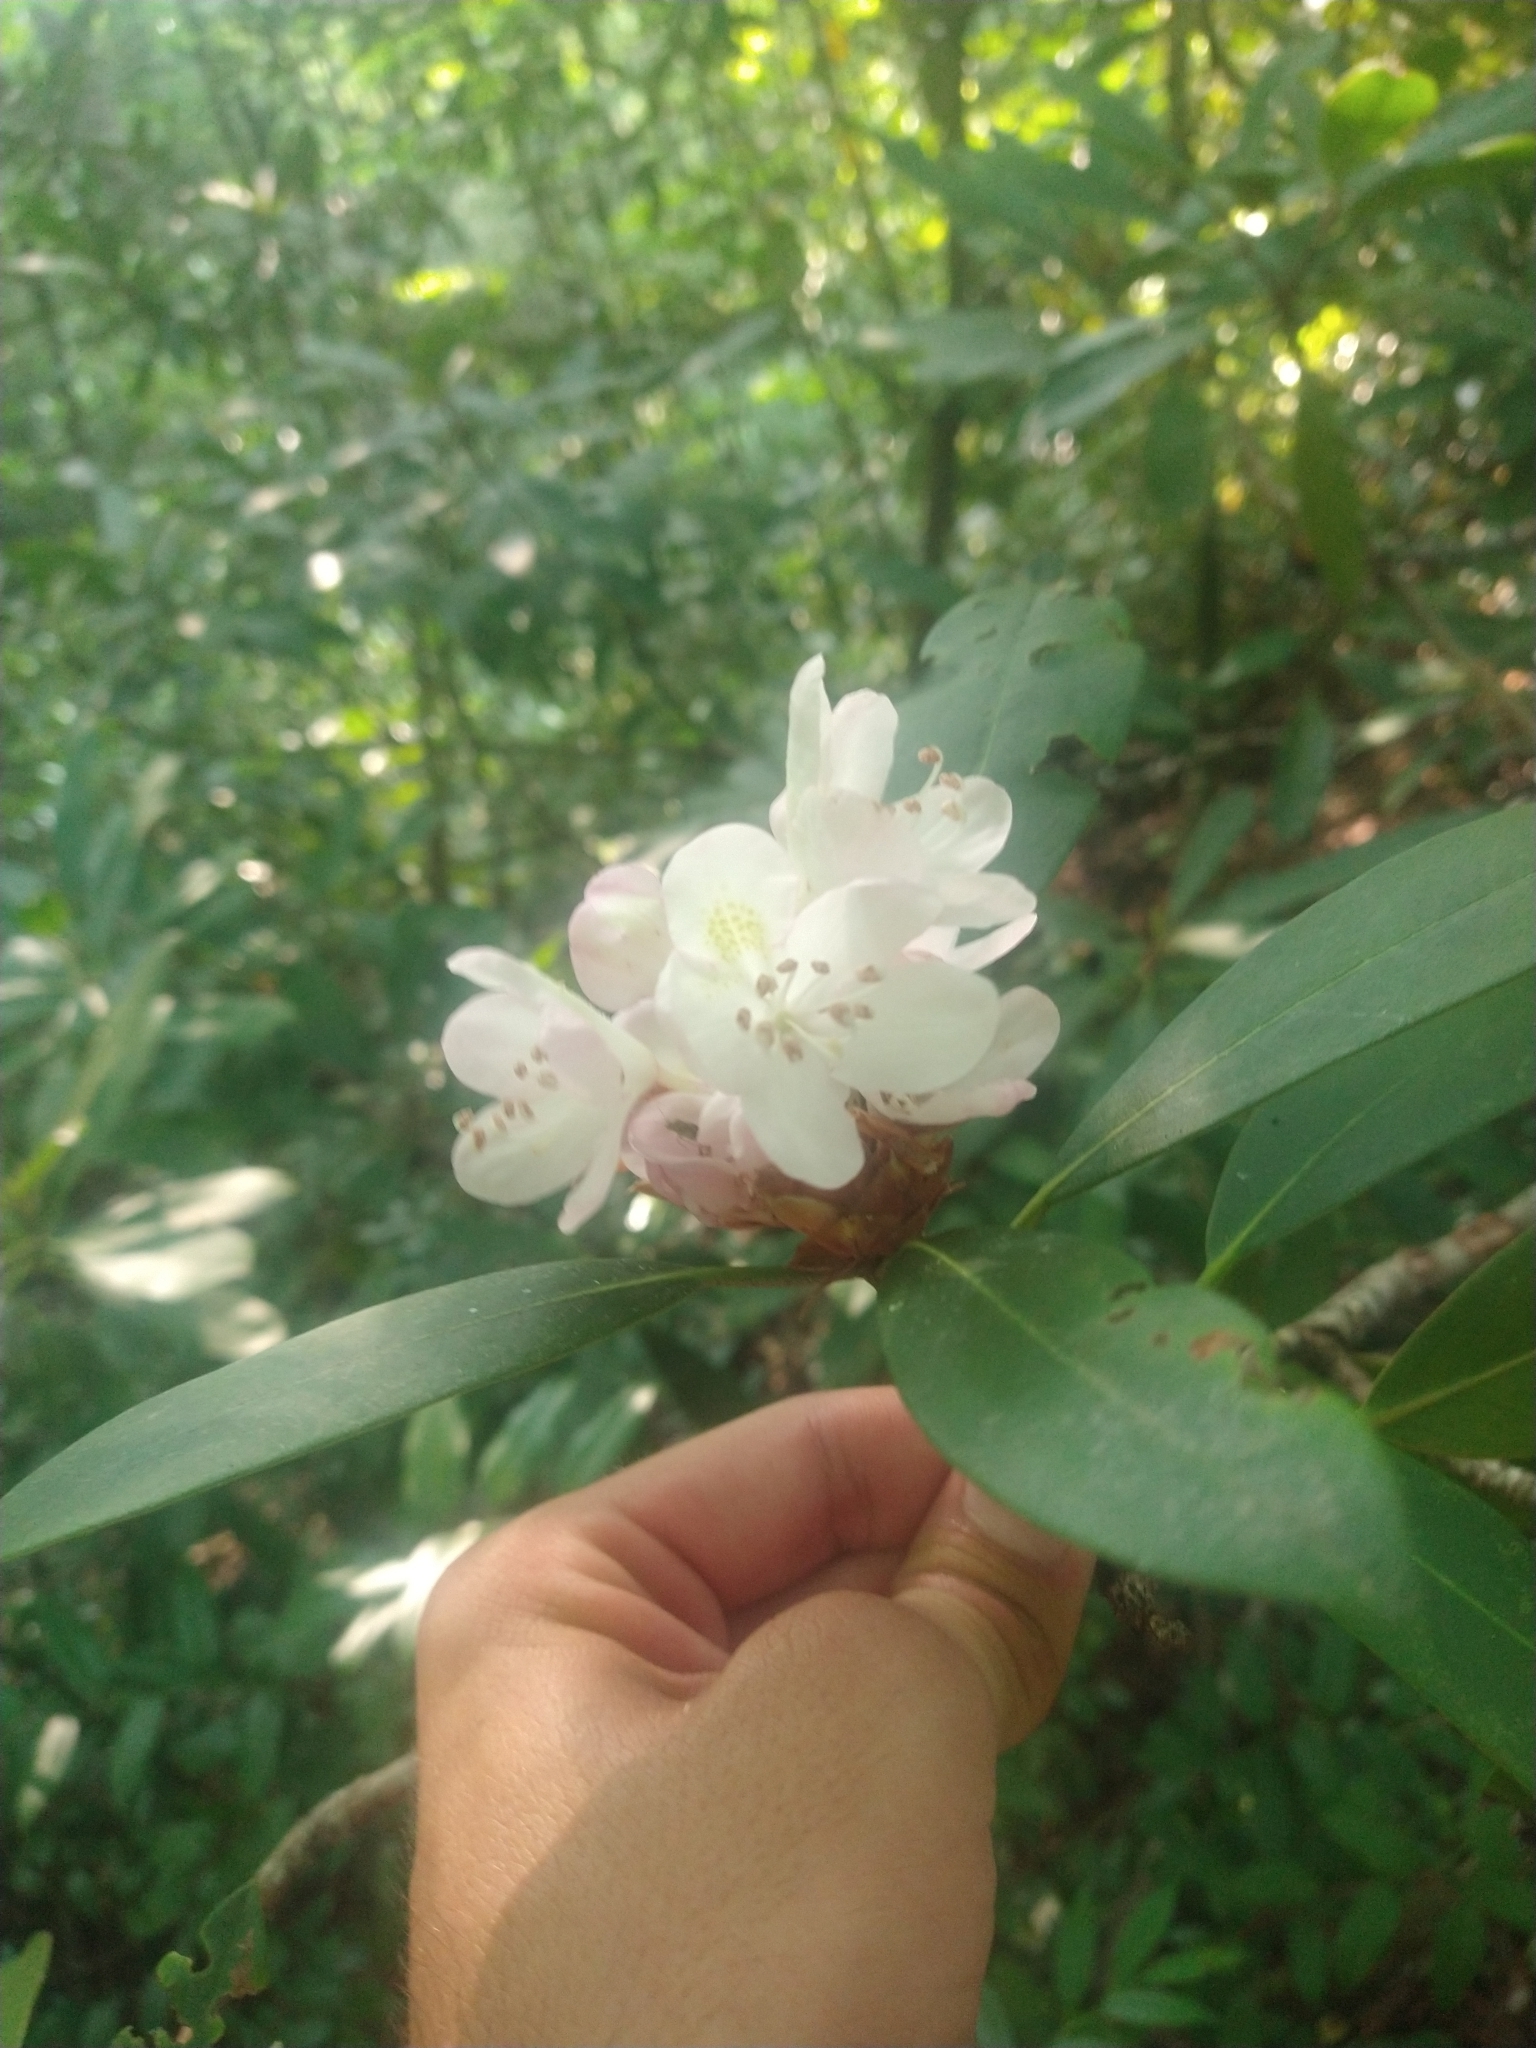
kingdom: Plantae
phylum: Tracheophyta
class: Magnoliopsida
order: Ericales
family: Ericaceae
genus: Rhododendron
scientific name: Rhododendron maximum
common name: Great rhododendron
